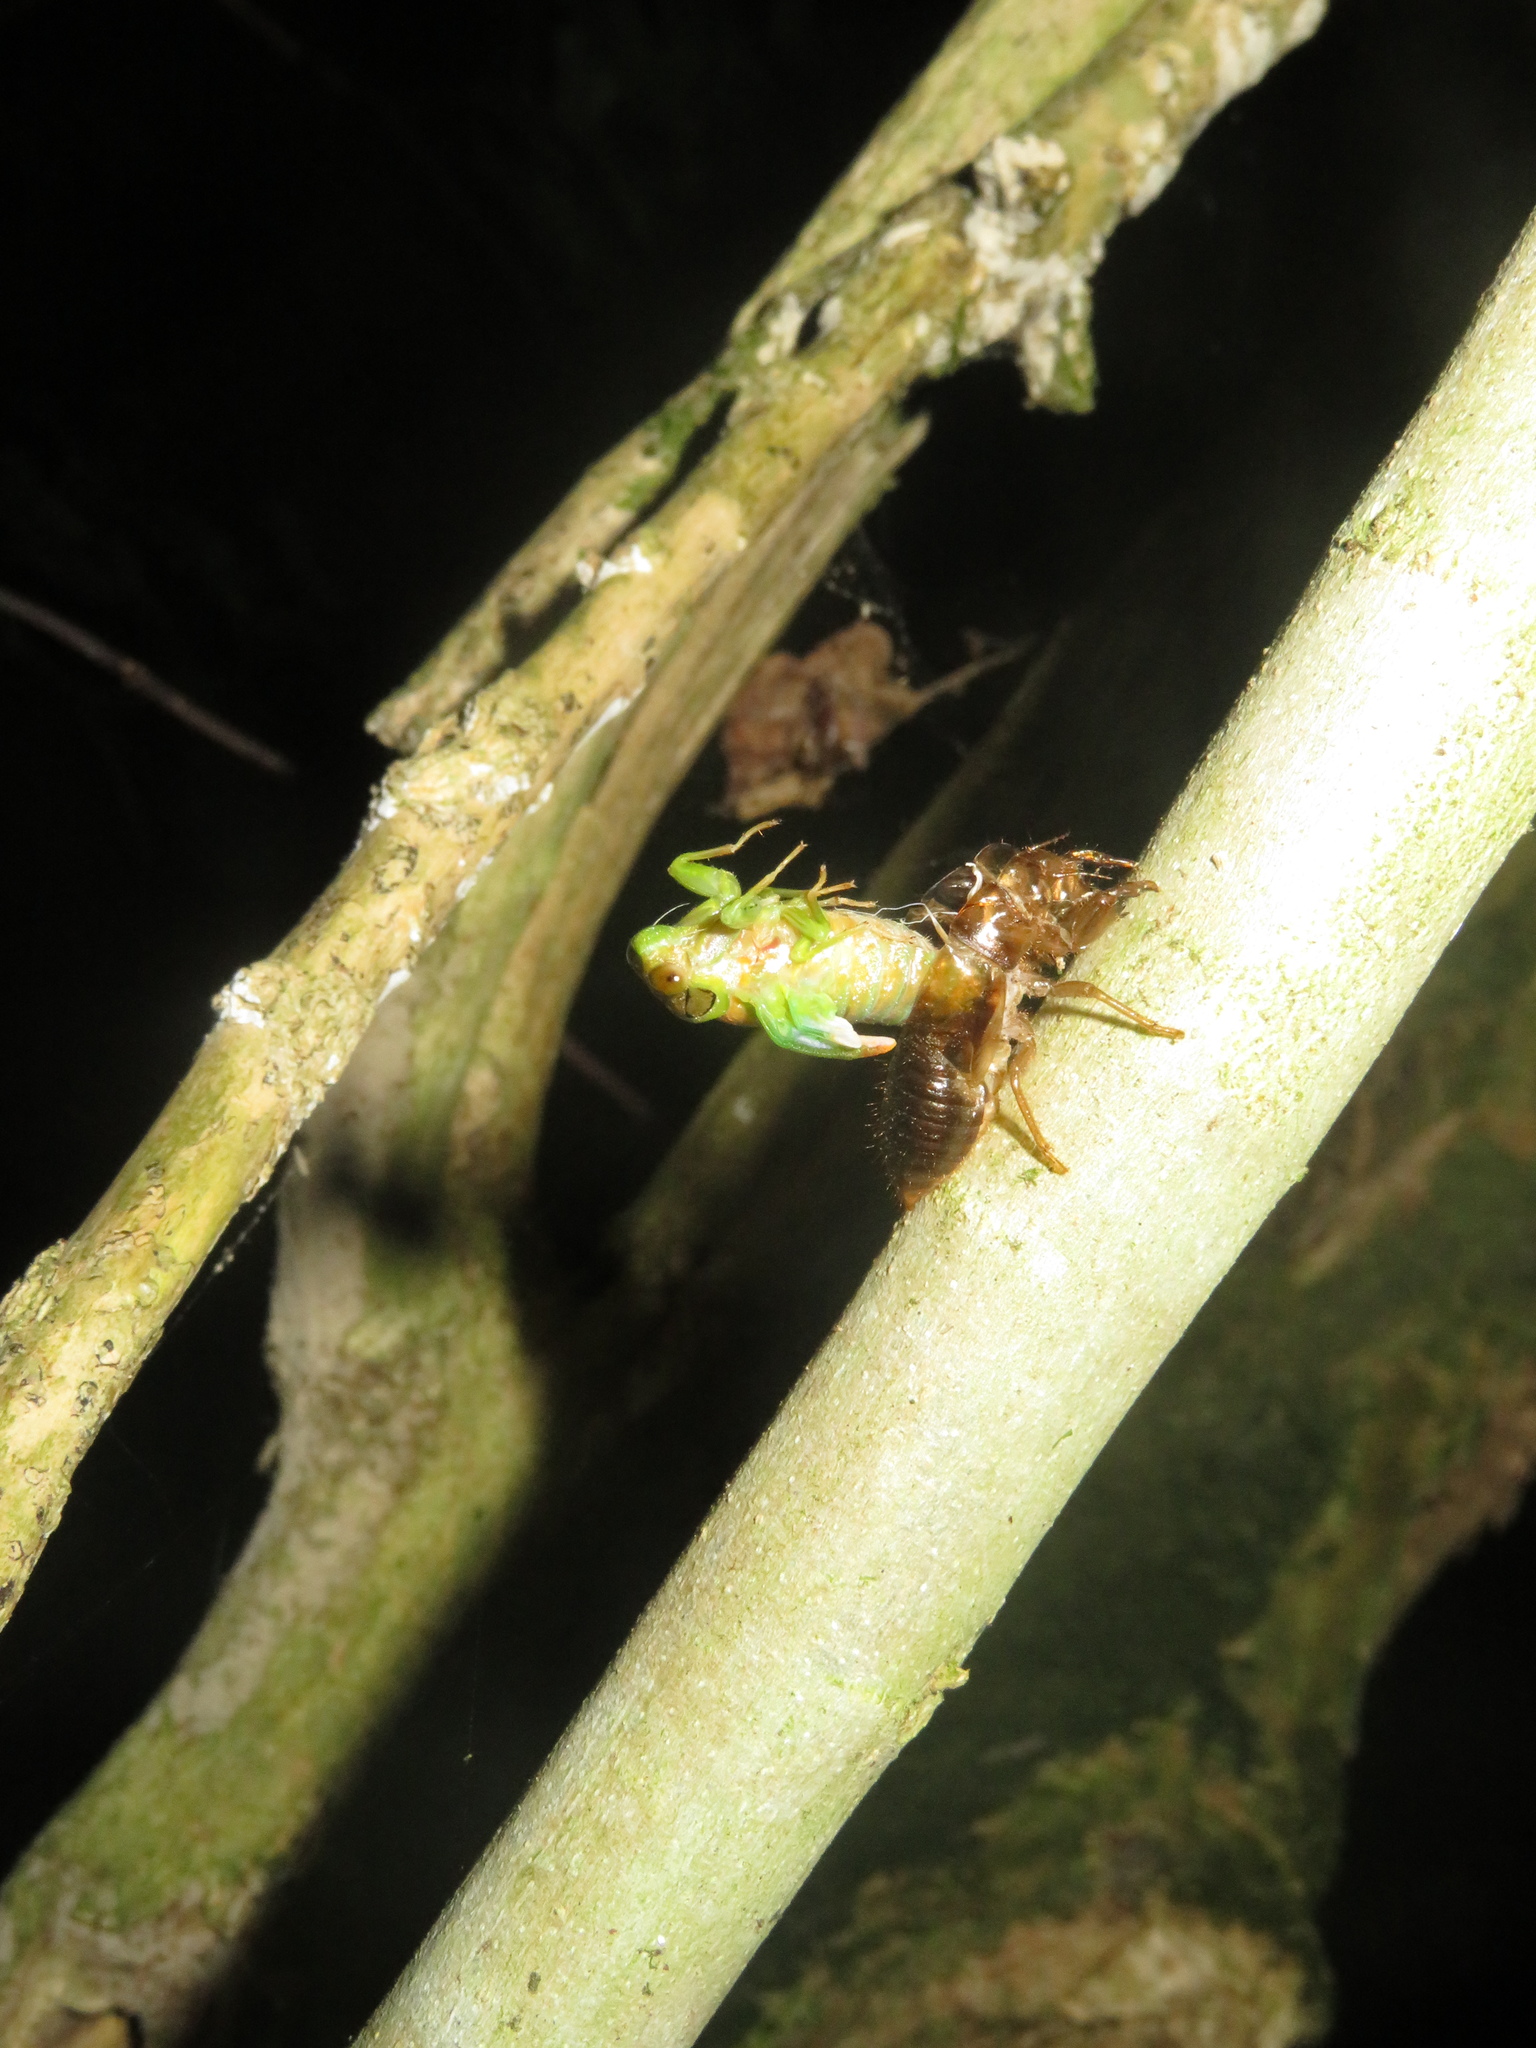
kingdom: Animalia
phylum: Arthropoda
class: Insecta
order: Hemiptera
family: Cicadidae
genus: Kikihia
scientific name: Kikihia scutellaris
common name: Lesser bronze cicada
